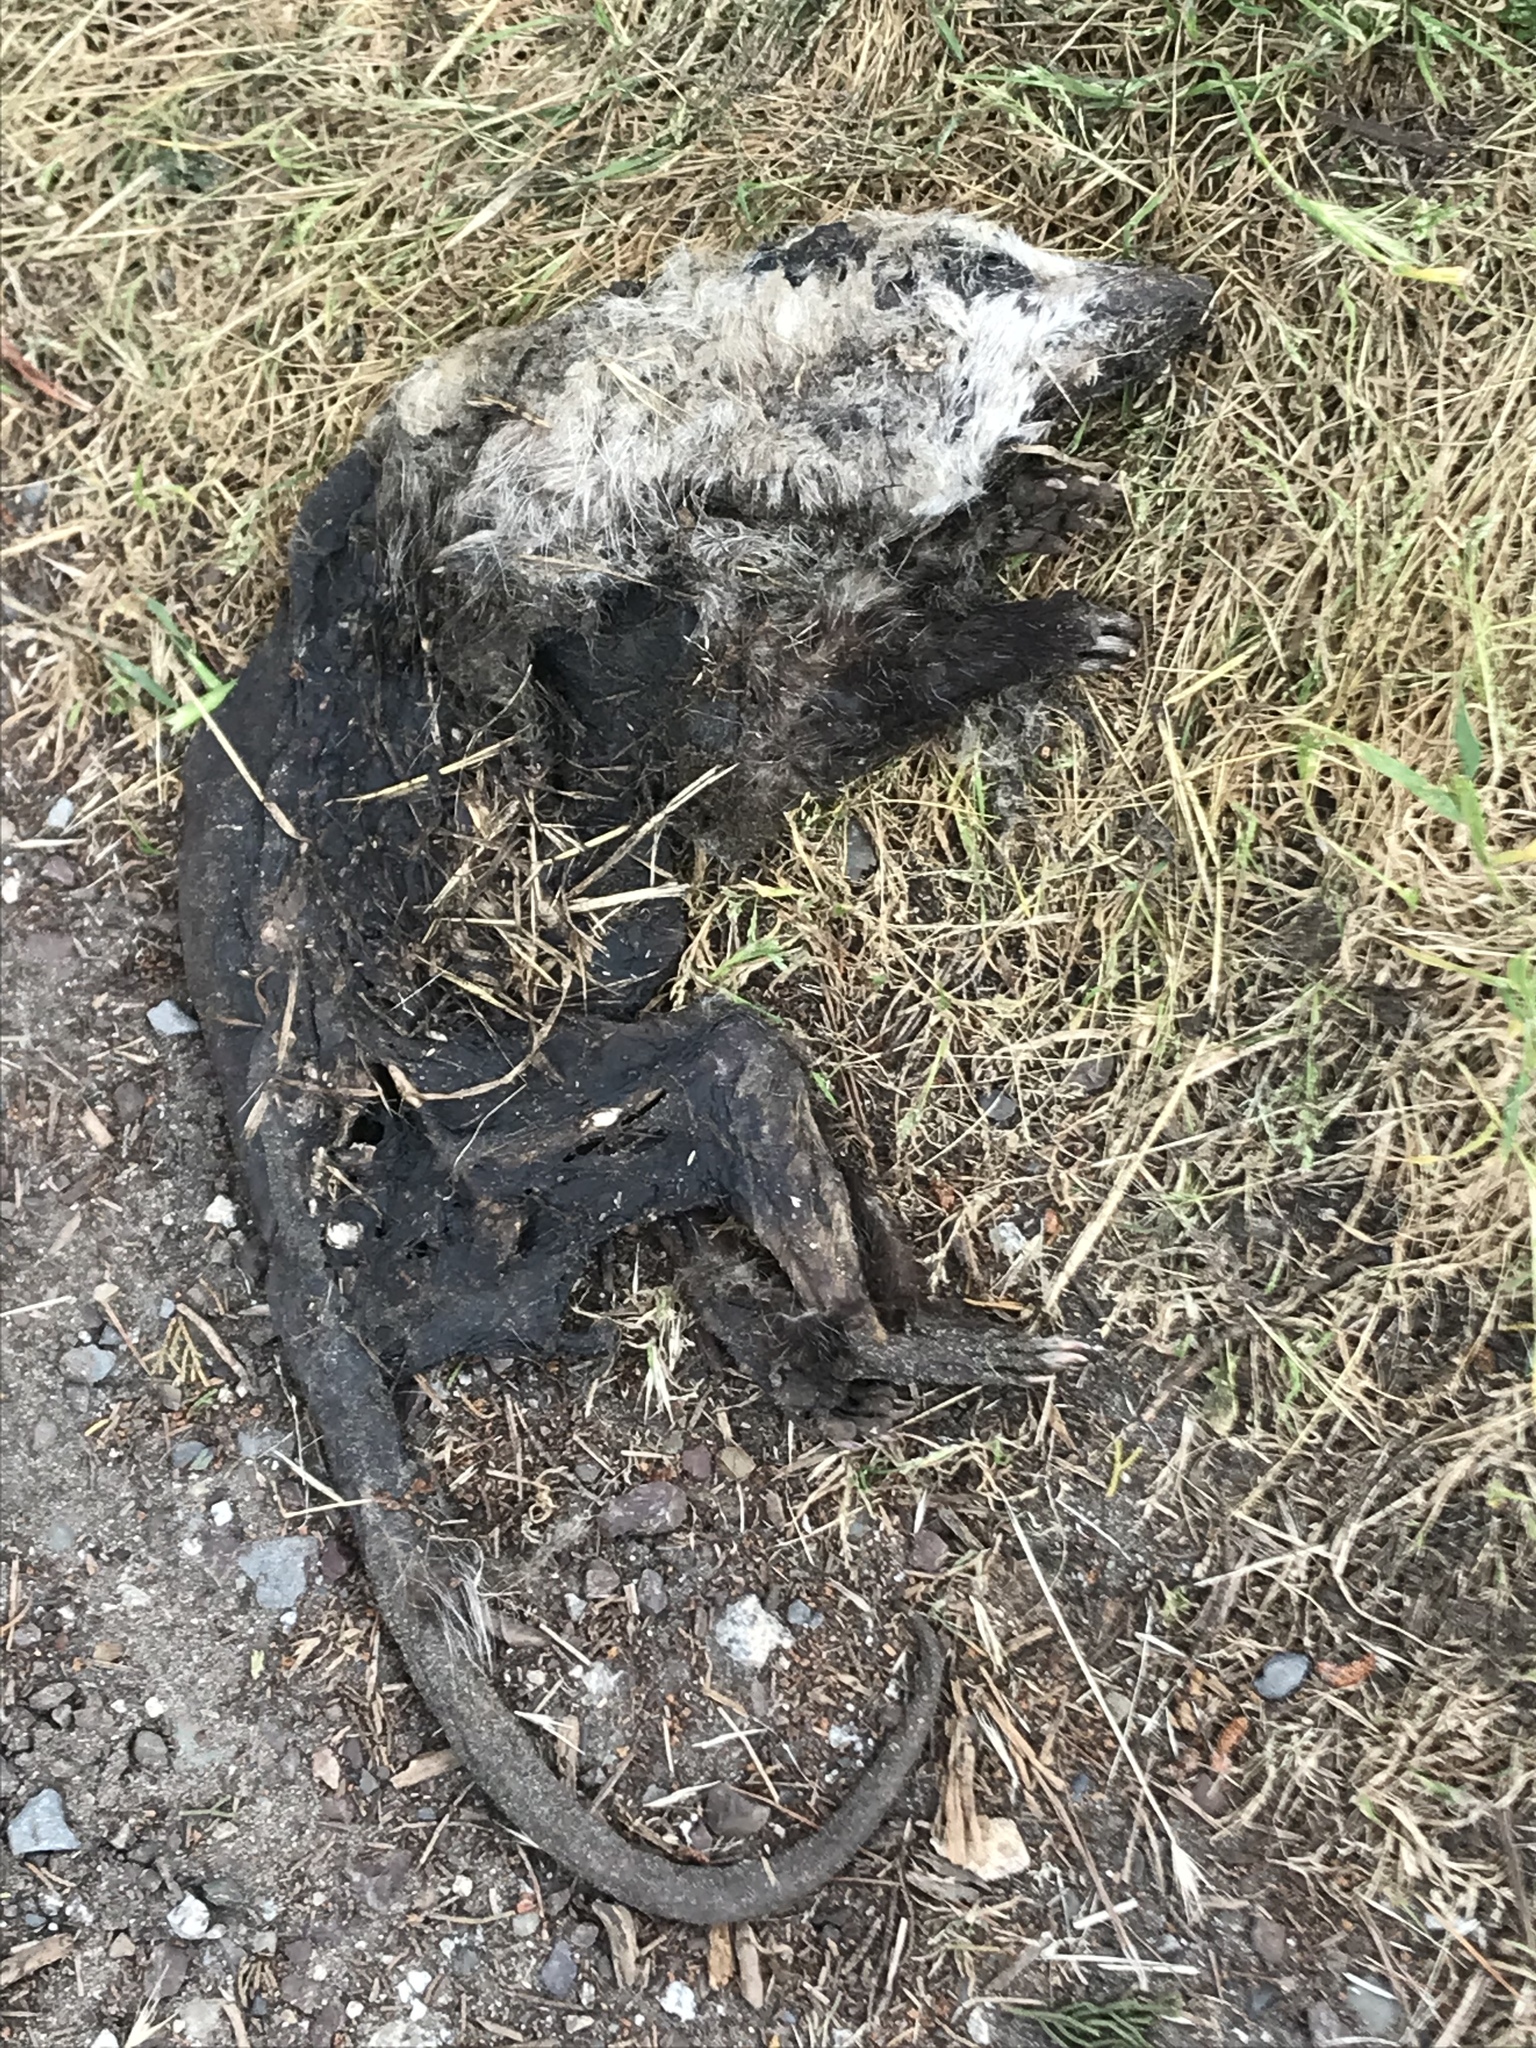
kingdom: Animalia
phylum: Chordata
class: Mammalia
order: Didelphimorphia
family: Didelphidae
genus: Didelphis
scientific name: Didelphis virginiana
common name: Virginia opossum
